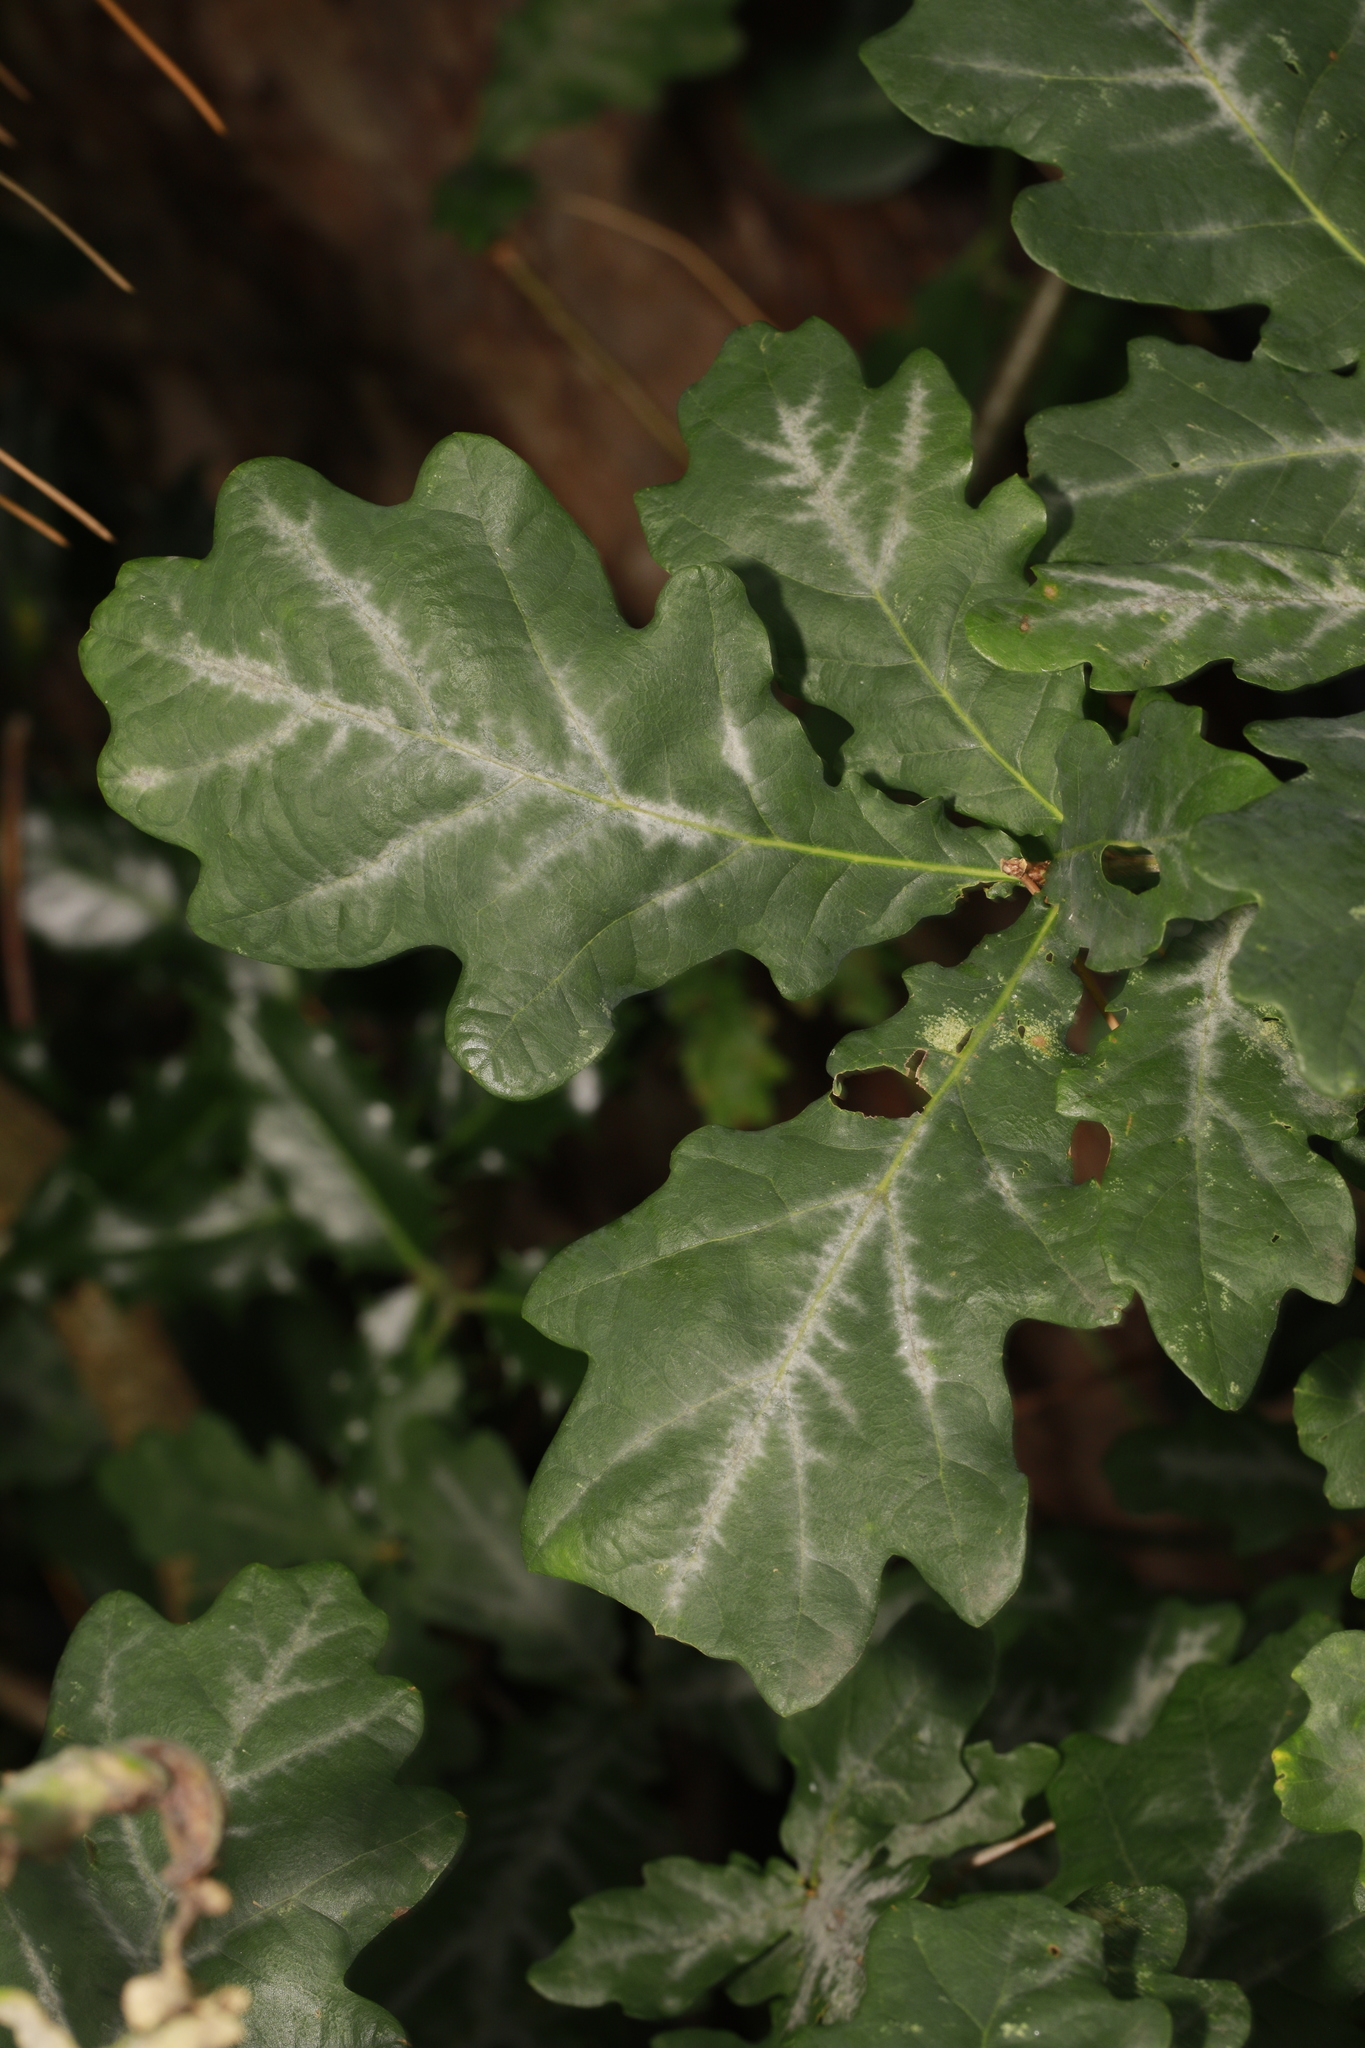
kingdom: Fungi
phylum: Ascomycota
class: Leotiomycetes
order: Helotiales
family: Erysiphaceae
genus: Erysiphe
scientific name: Erysiphe alphitoides
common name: Oak mildew
